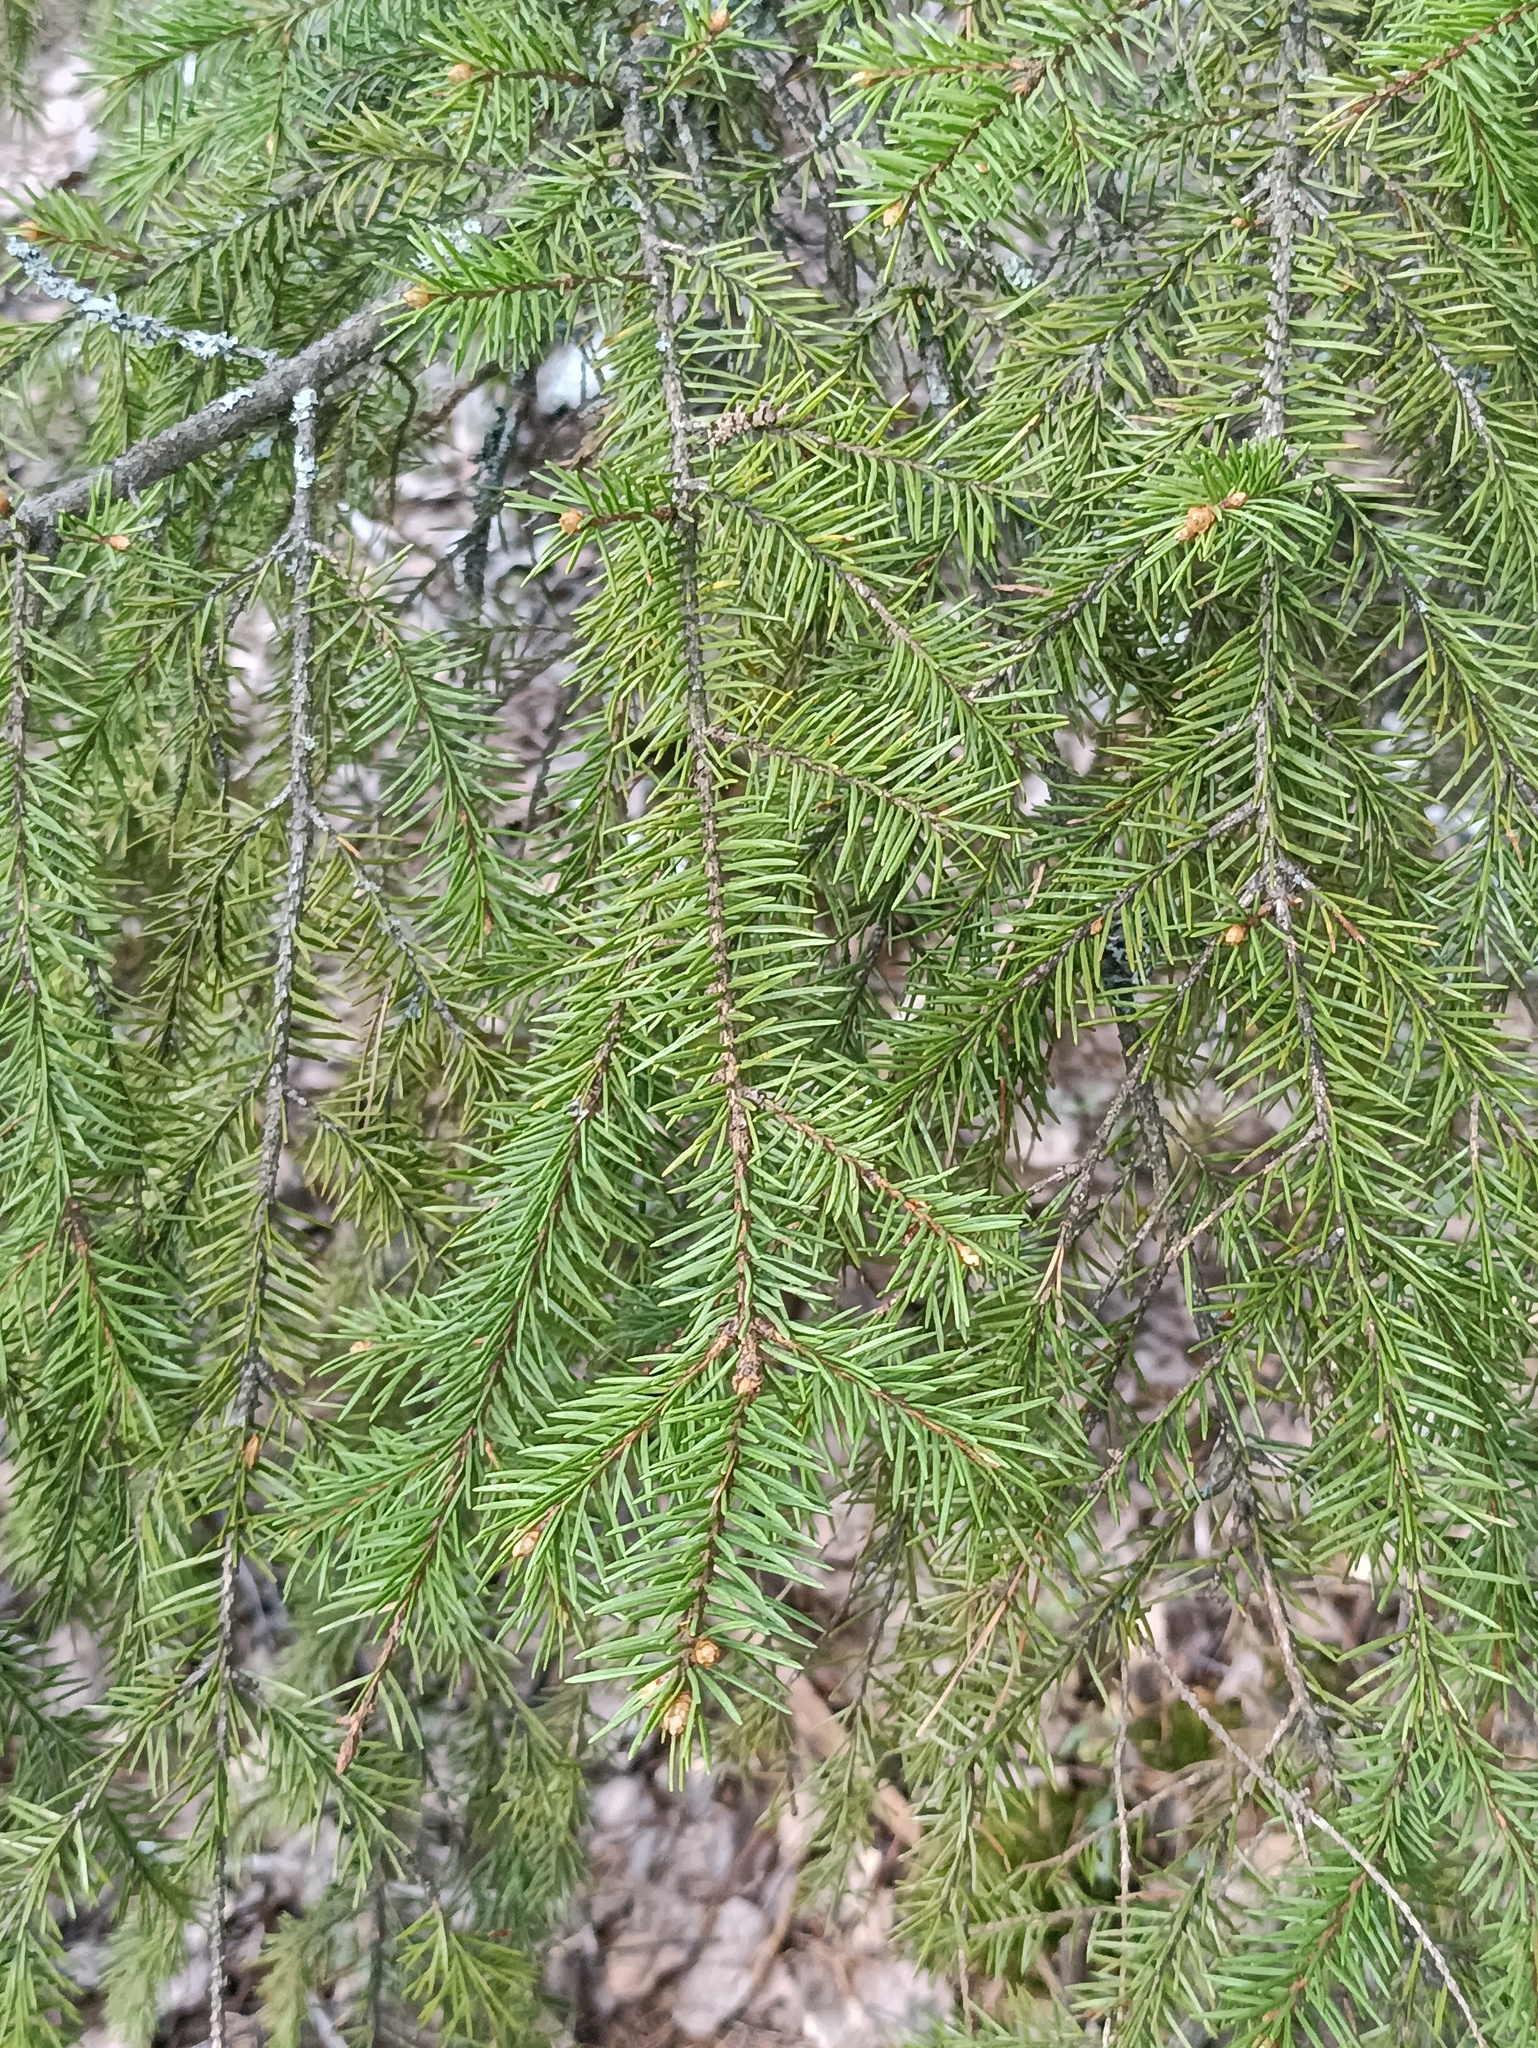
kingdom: Plantae
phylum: Tracheophyta
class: Pinopsida
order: Pinales
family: Pinaceae
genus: Picea
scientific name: Picea abies
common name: Norway spruce
